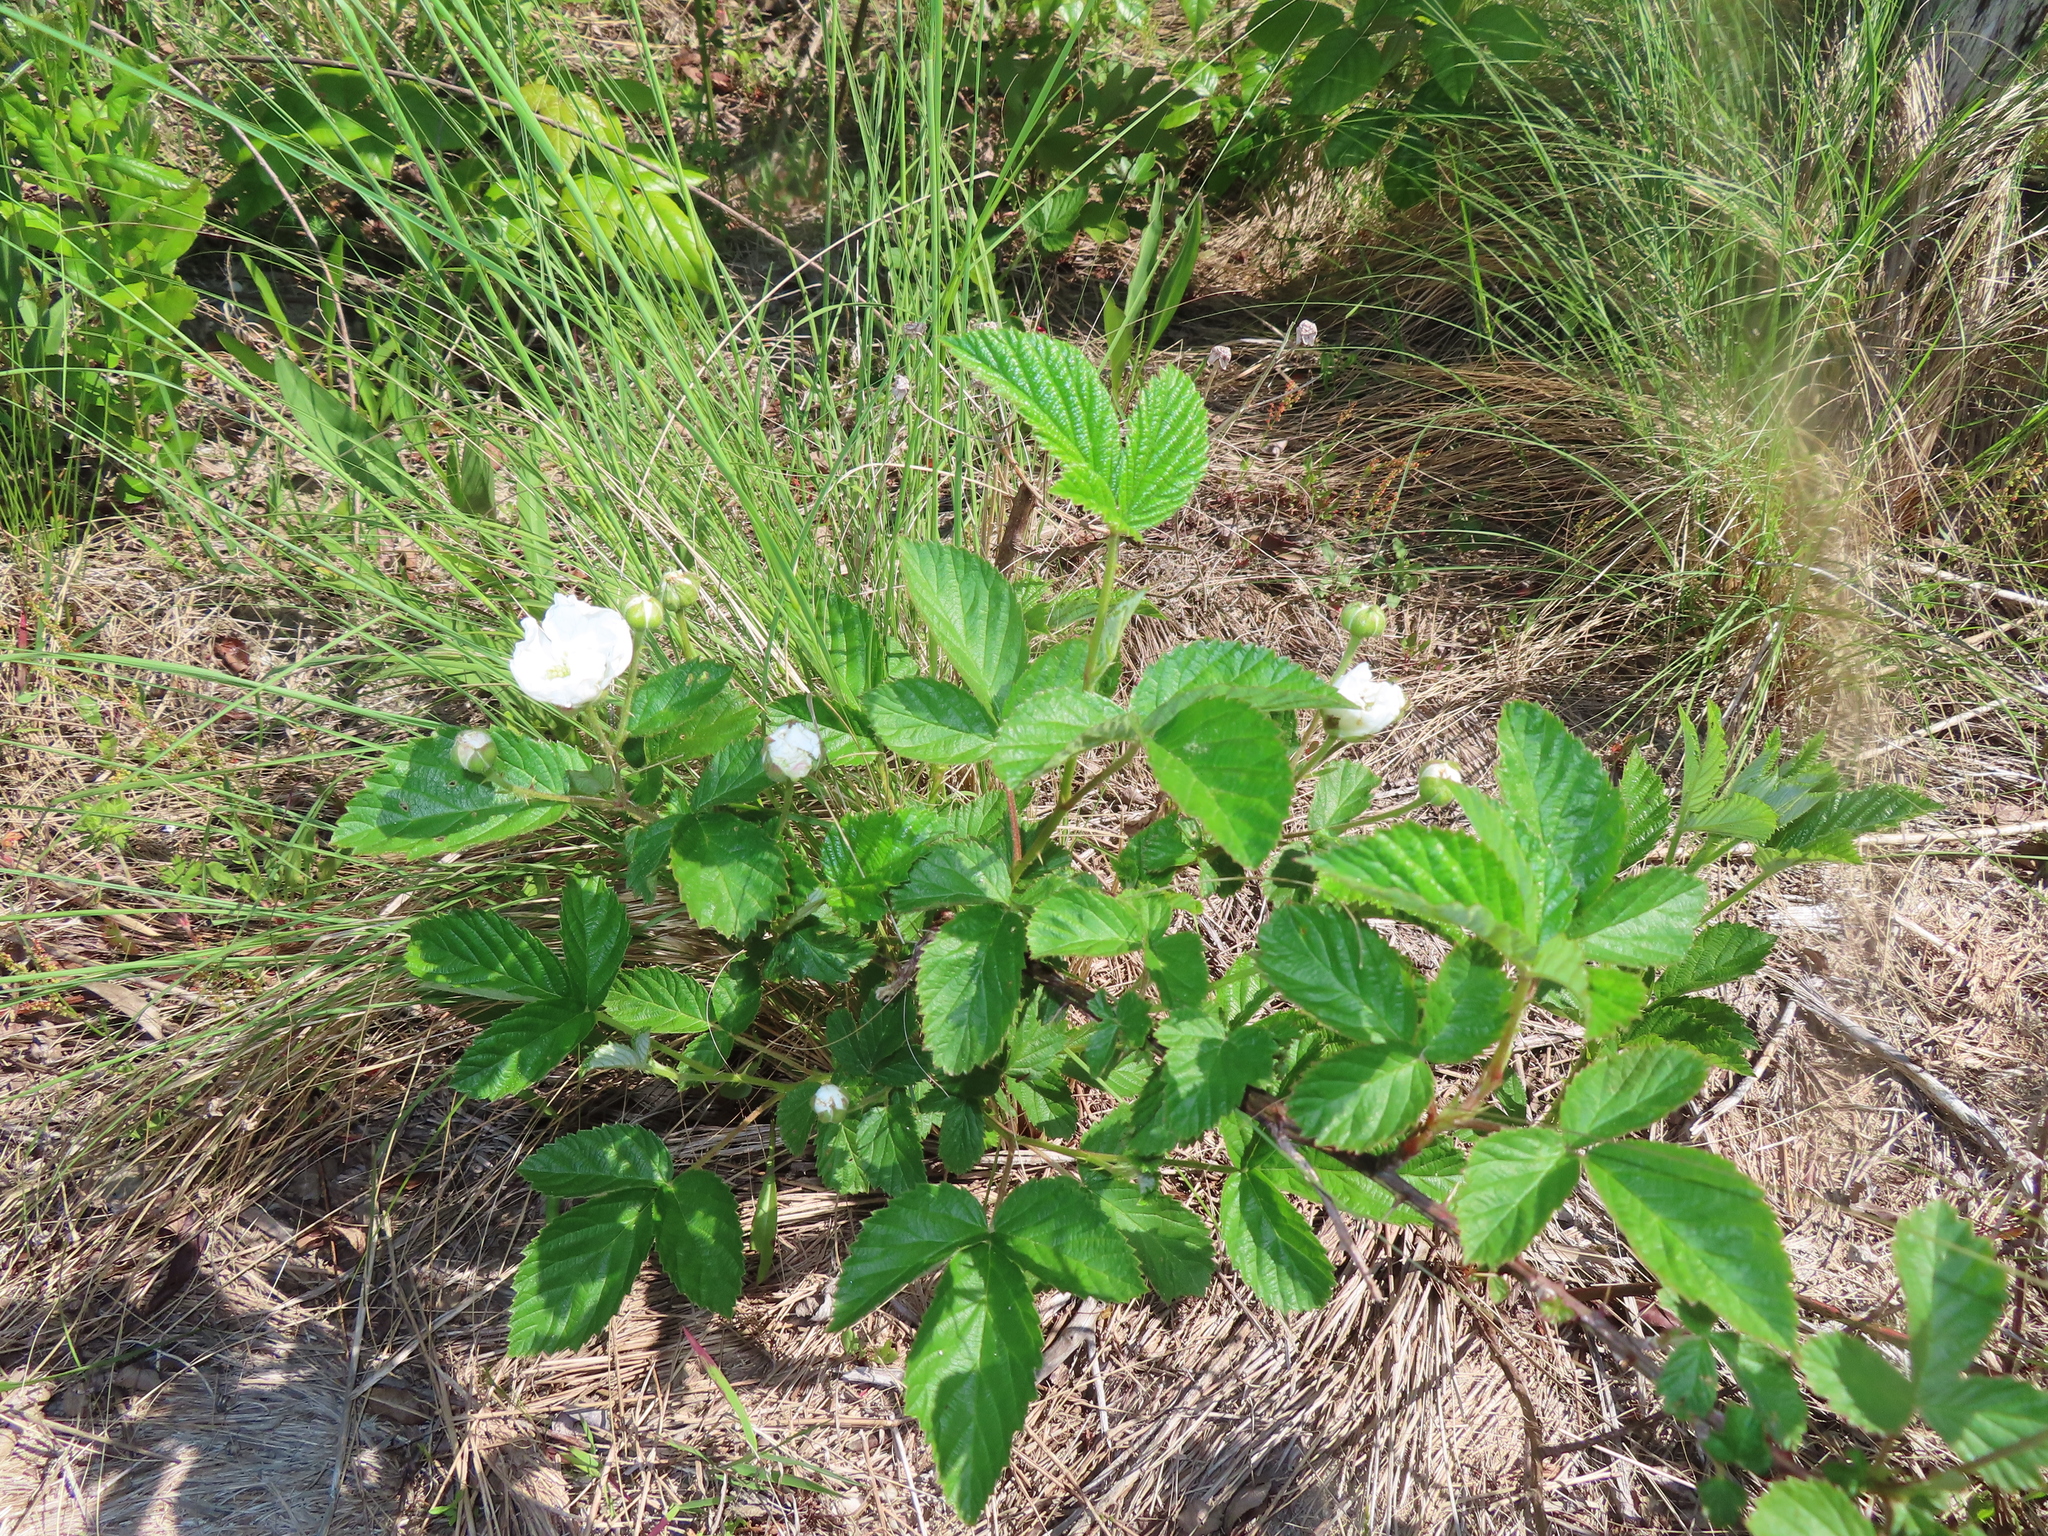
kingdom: Plantae
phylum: Tracheophyta
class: Magnoliopsida
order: Rosales
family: Rosaceae
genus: Rubus
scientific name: Rubus cuneifolius
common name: American bramble
